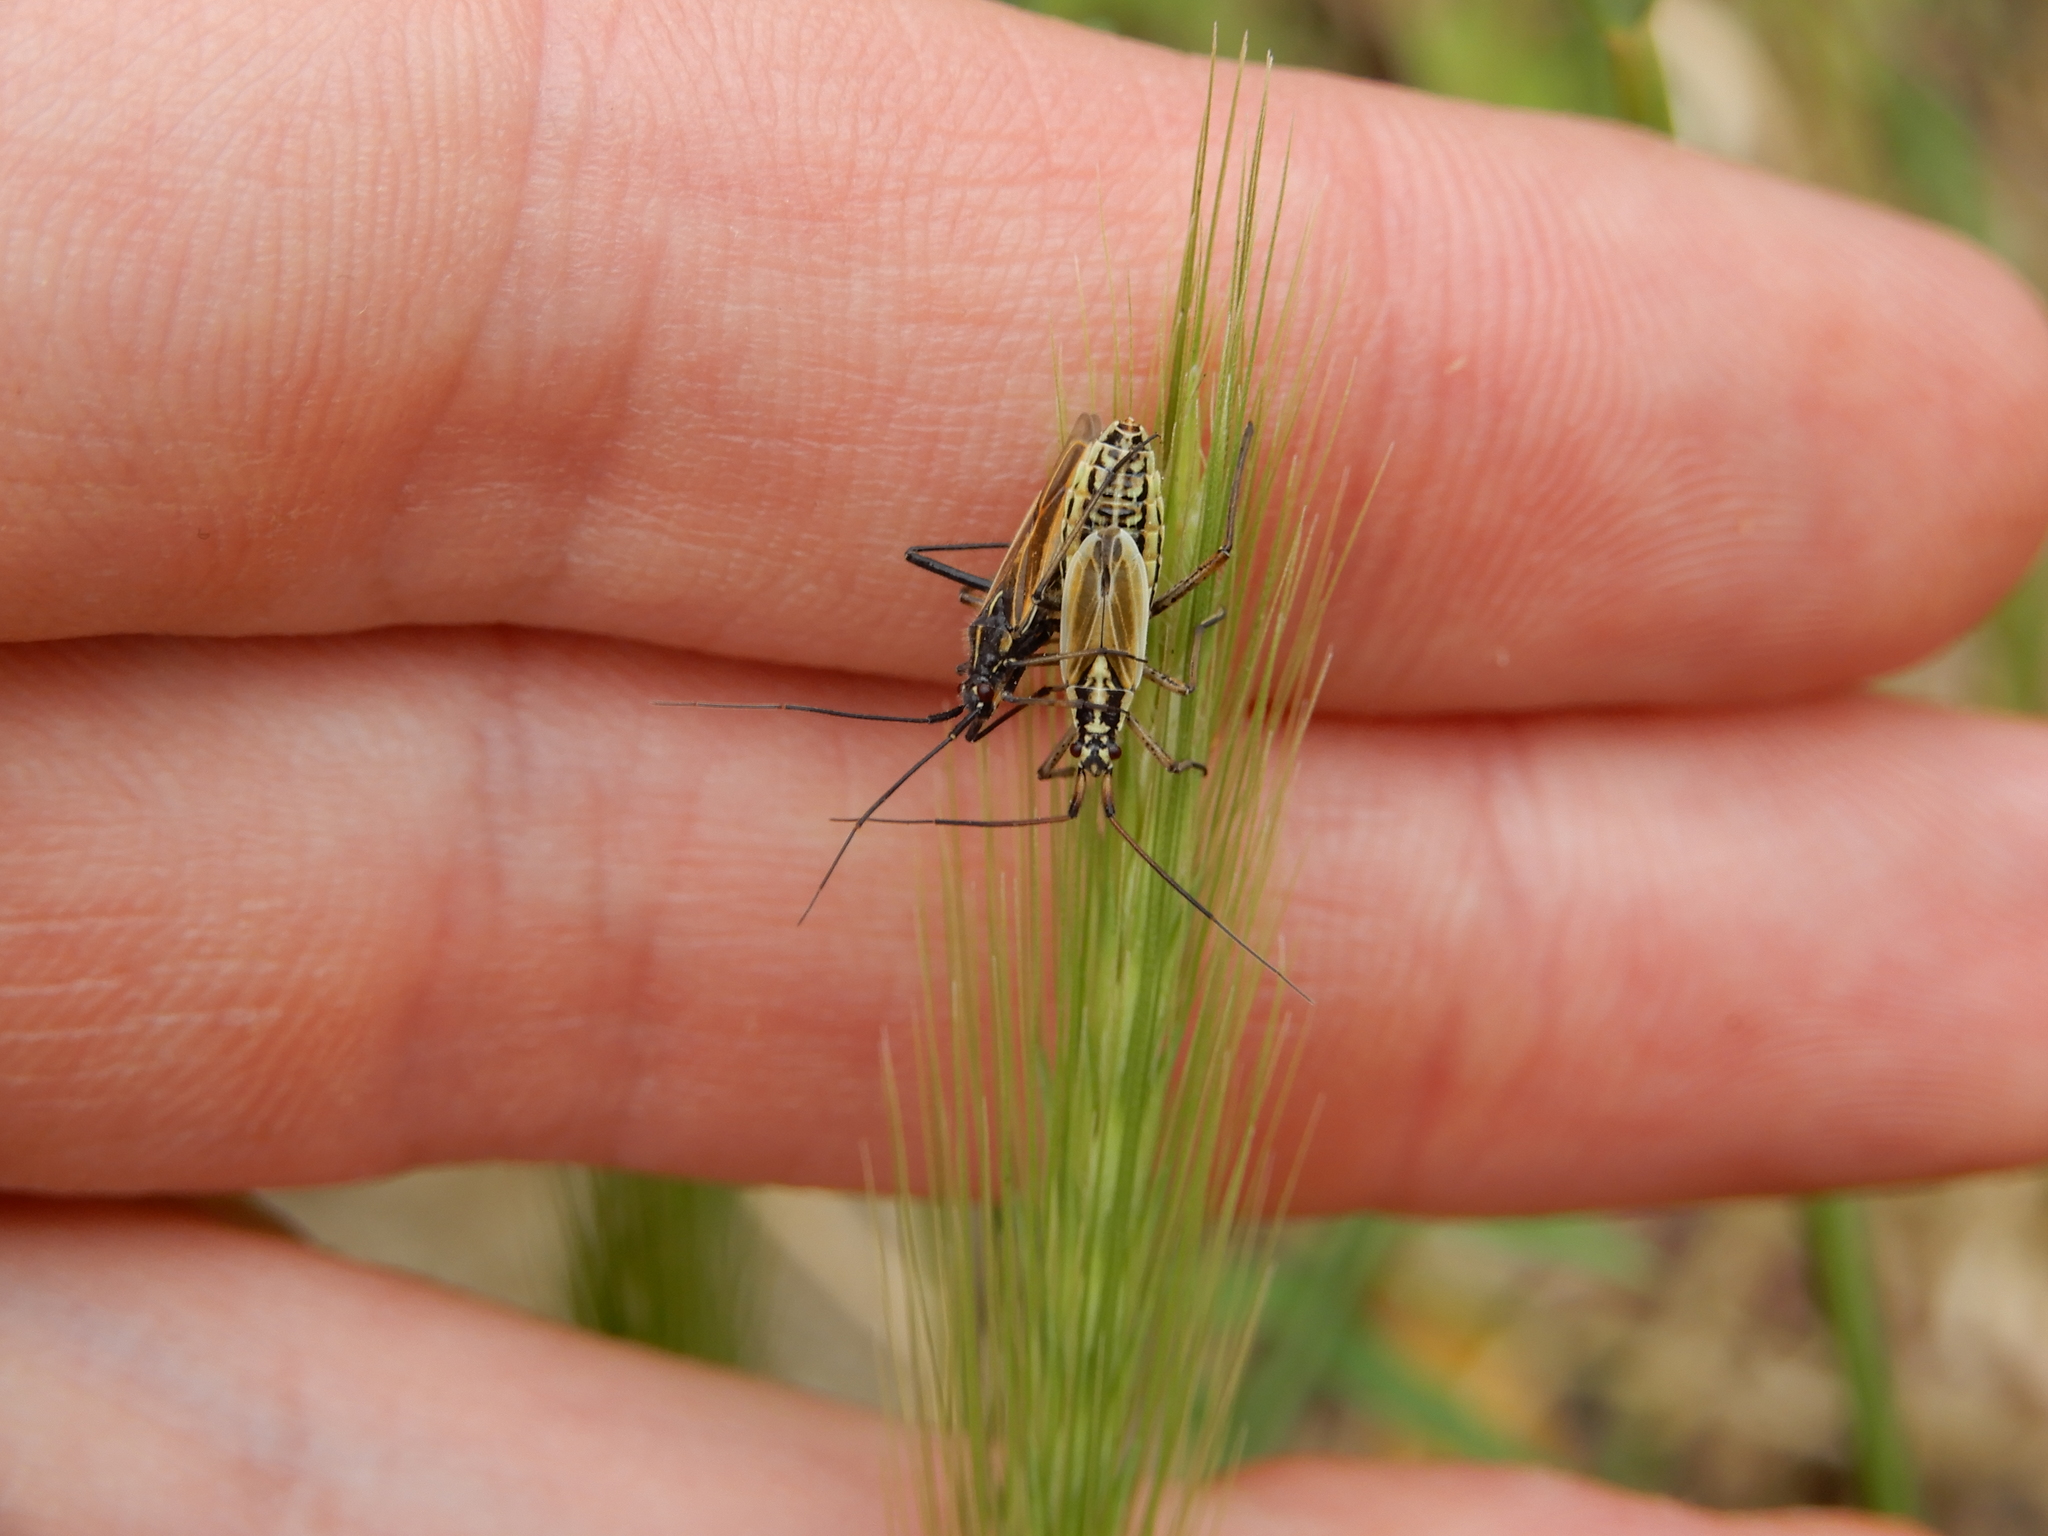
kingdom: Animalia
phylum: Arthropoda
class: Insecta
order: Hemiptera
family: Miridae
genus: Leptopterna
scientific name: Leptopterna dolabrata
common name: Meadow plant bug
